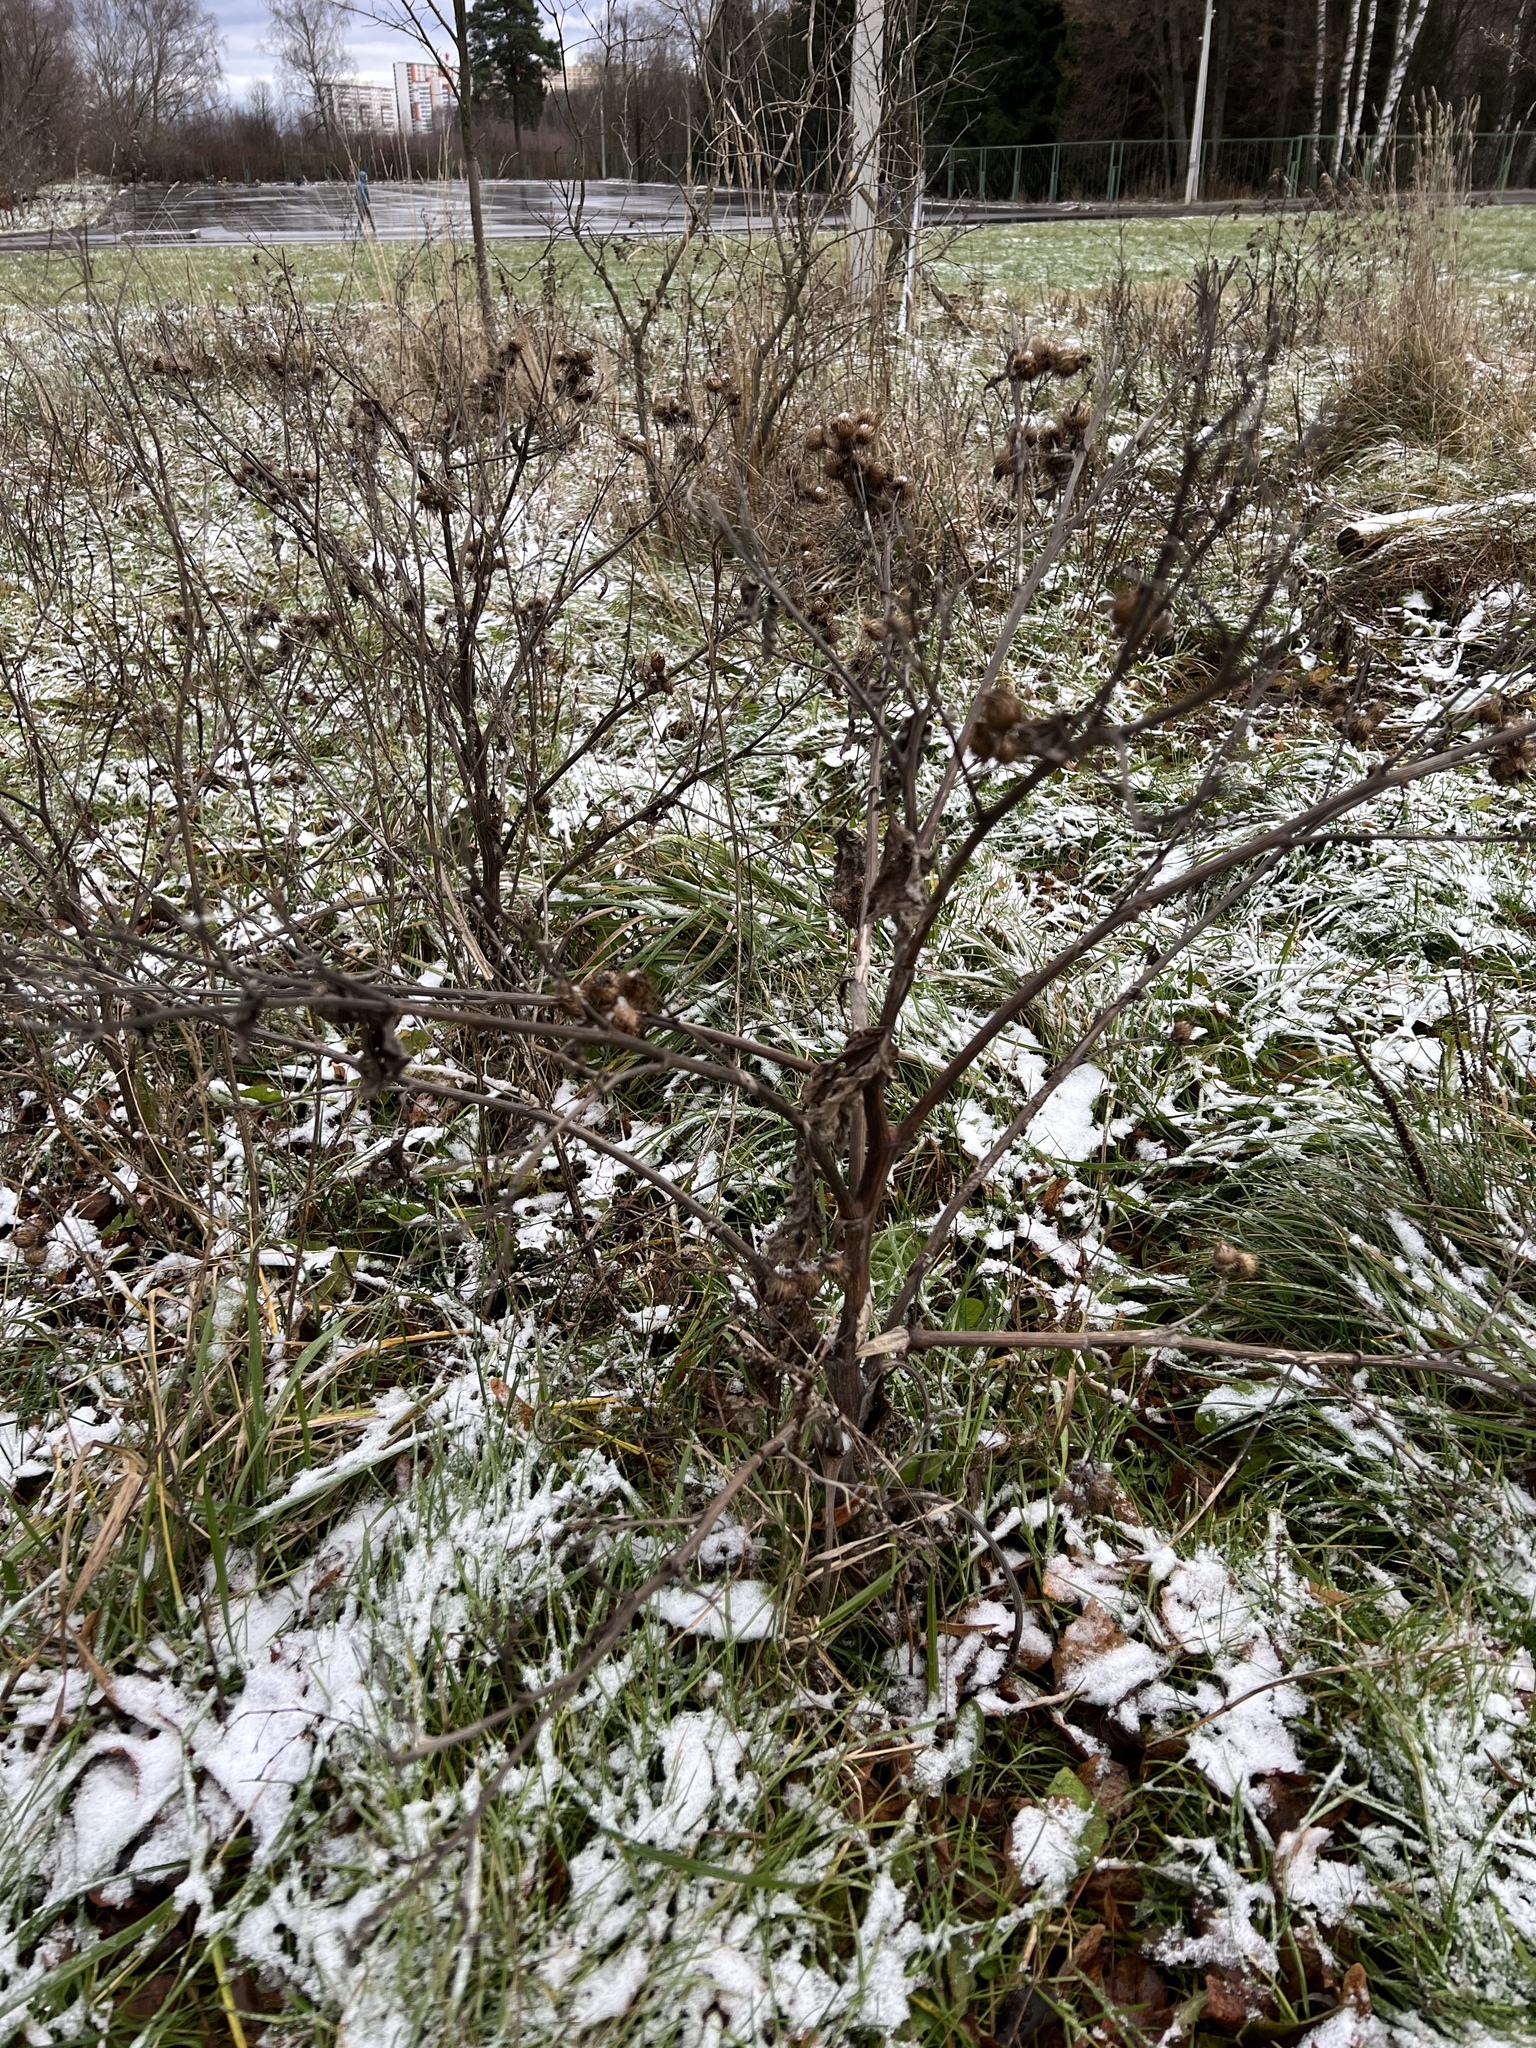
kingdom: Plantae
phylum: Tracheophyta
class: Magnoliopsida
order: Asterales
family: Asteraceae
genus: Arctium
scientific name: Arctium tomentosum
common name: Woolly burdock
